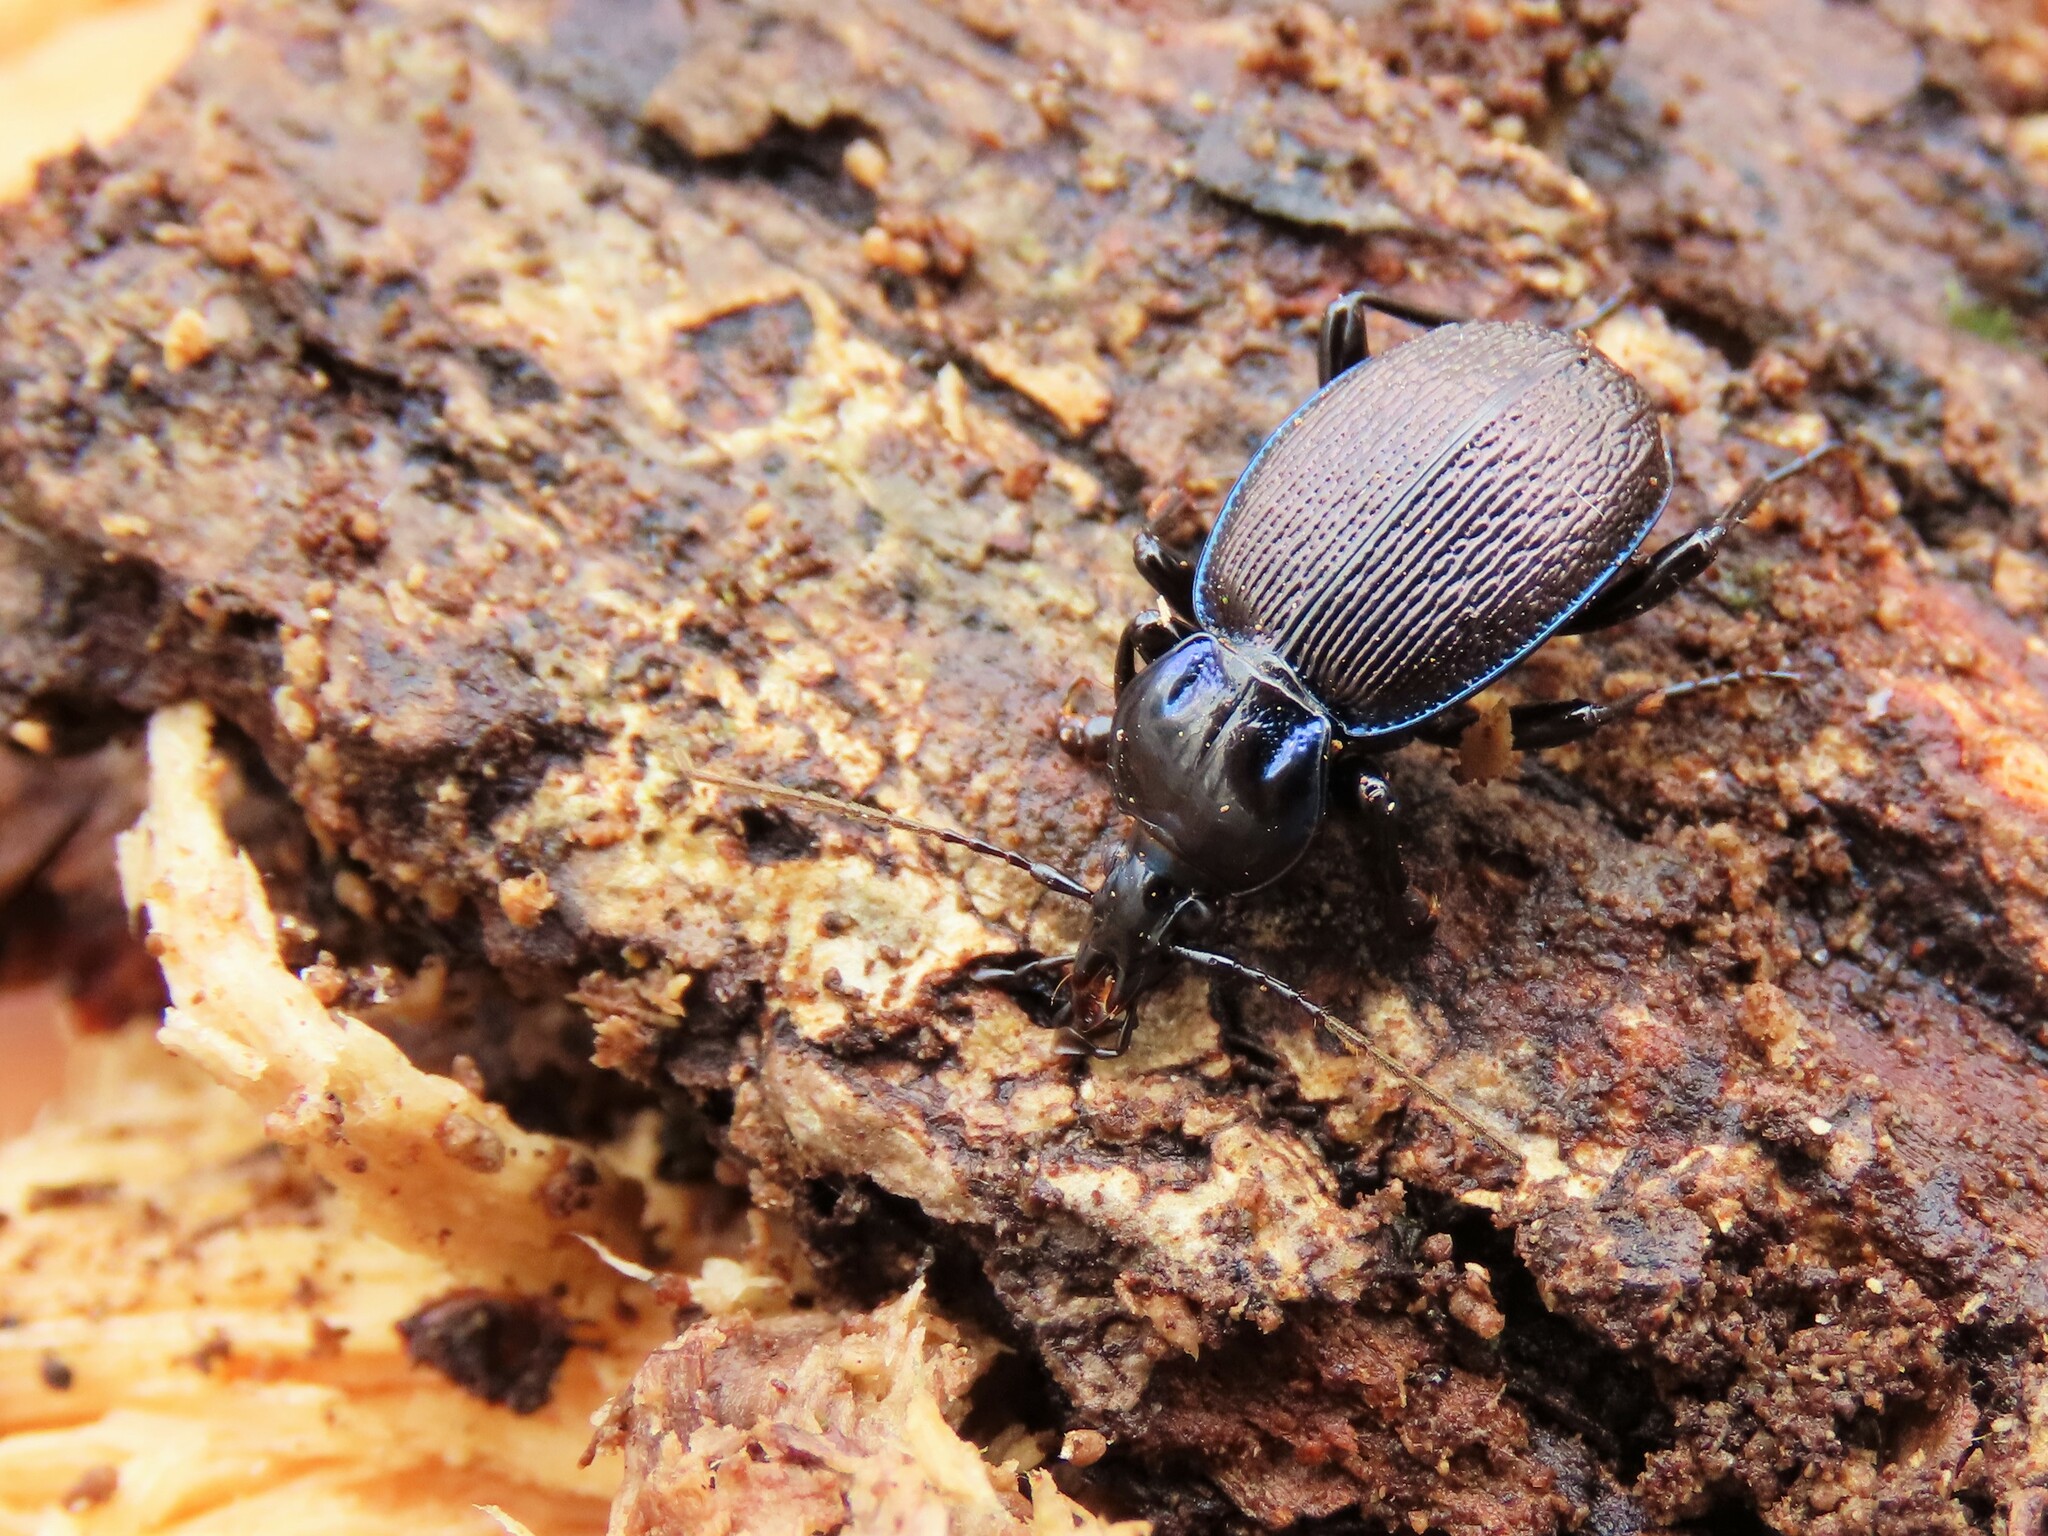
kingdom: Animalia
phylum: Arthropoda
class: Insecta
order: Coleoptera
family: Carabidae
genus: Sphaeroderus
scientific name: Sphaeroderus stenostomus
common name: Small snail-eating ground beetle
